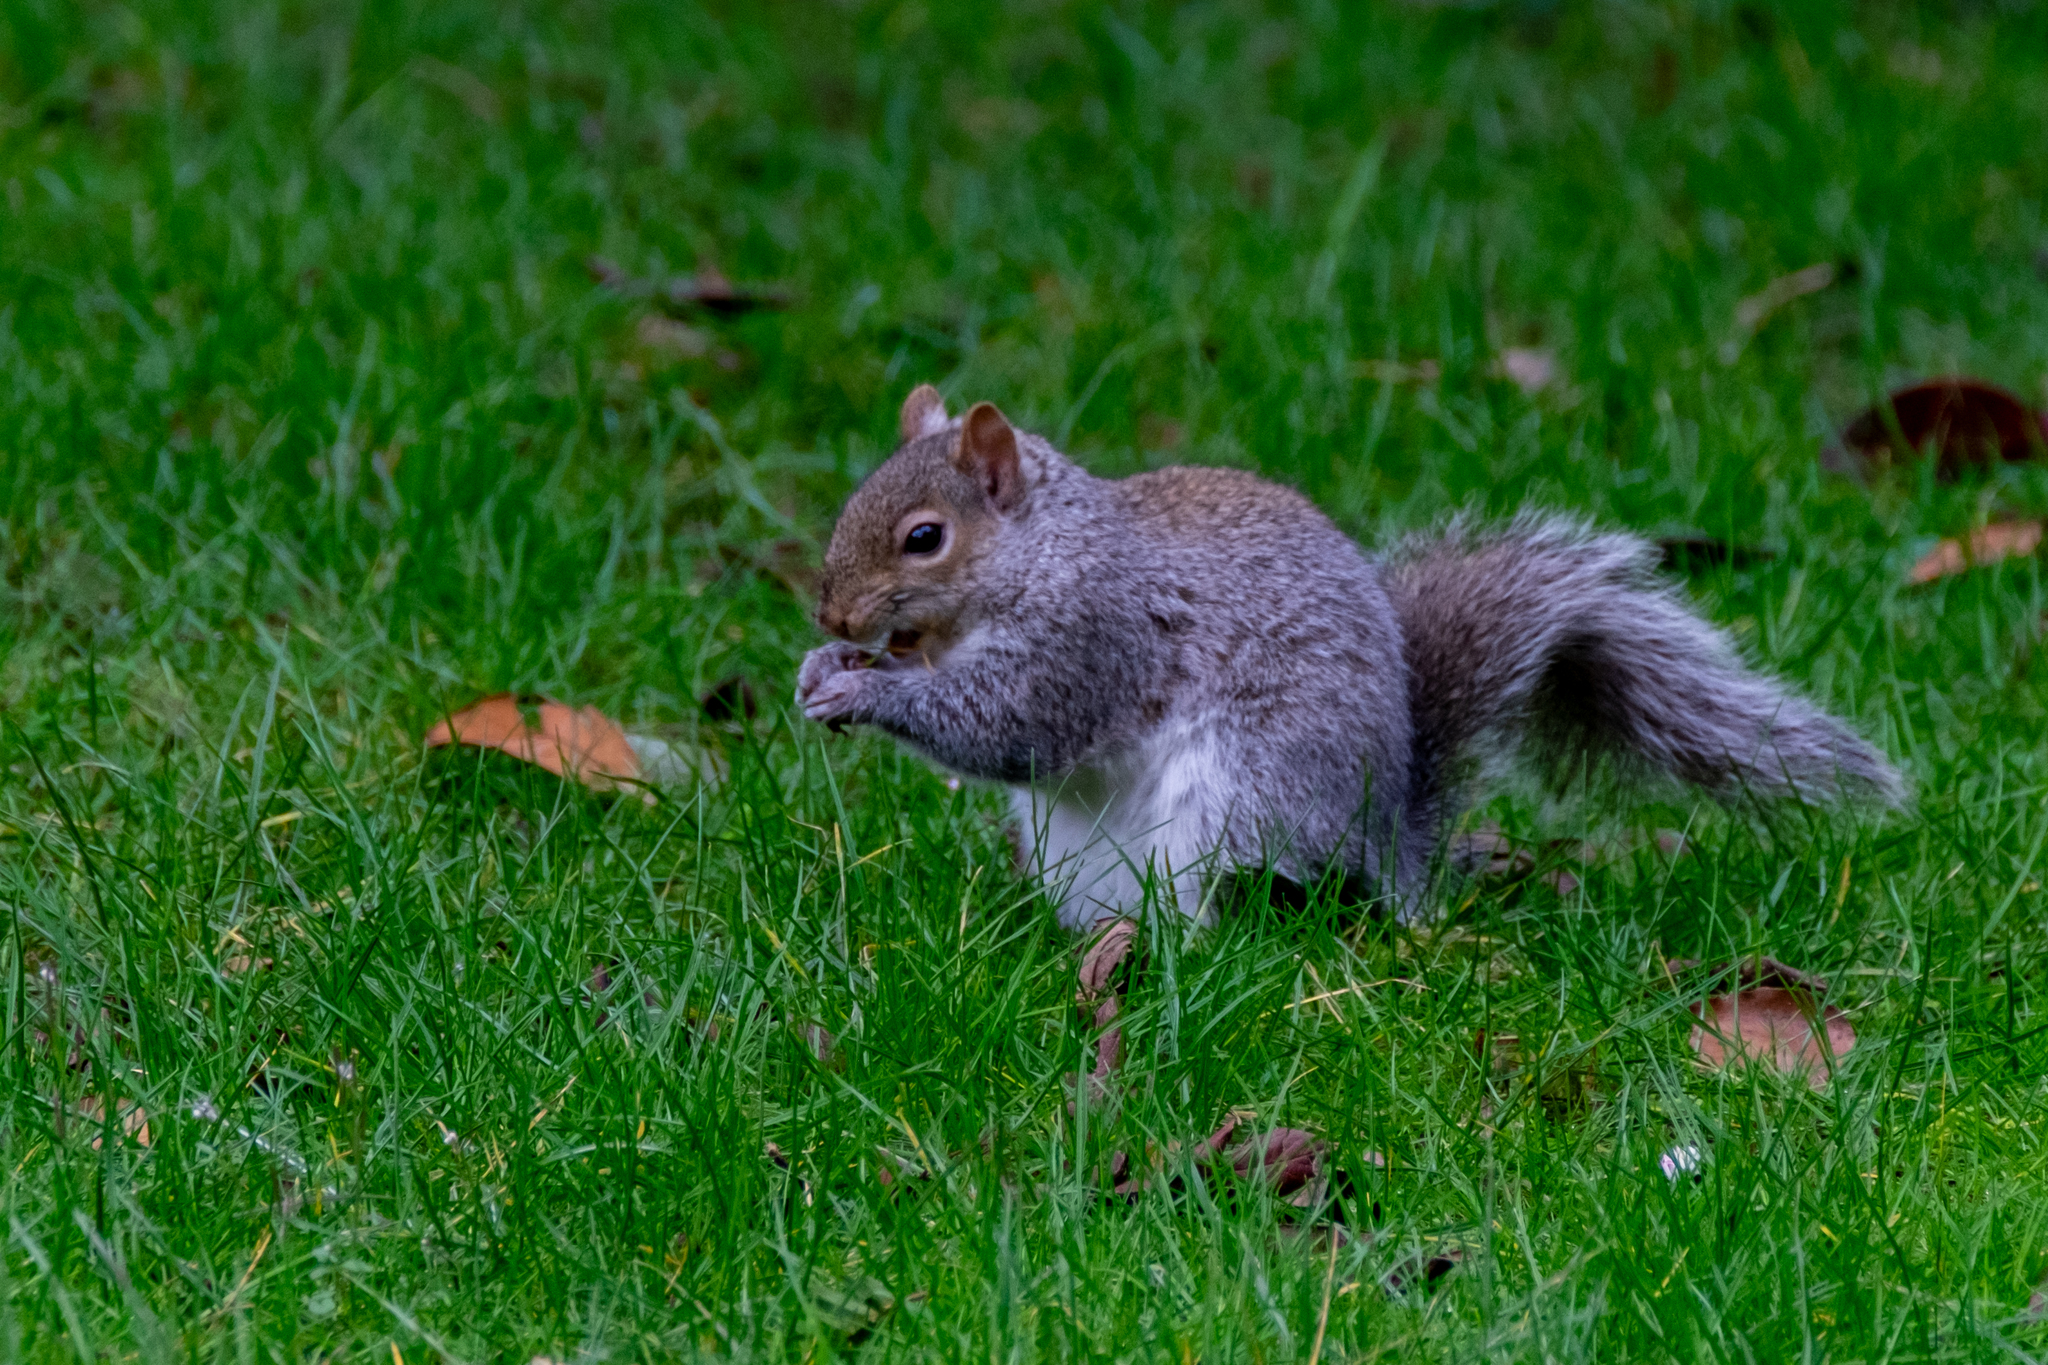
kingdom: Animalia
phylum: Chordata
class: Mammalia
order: Rodentia
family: Sciuridae
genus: Sciurus
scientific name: Sciurus carolinensis
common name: Eastern gray squirrel
